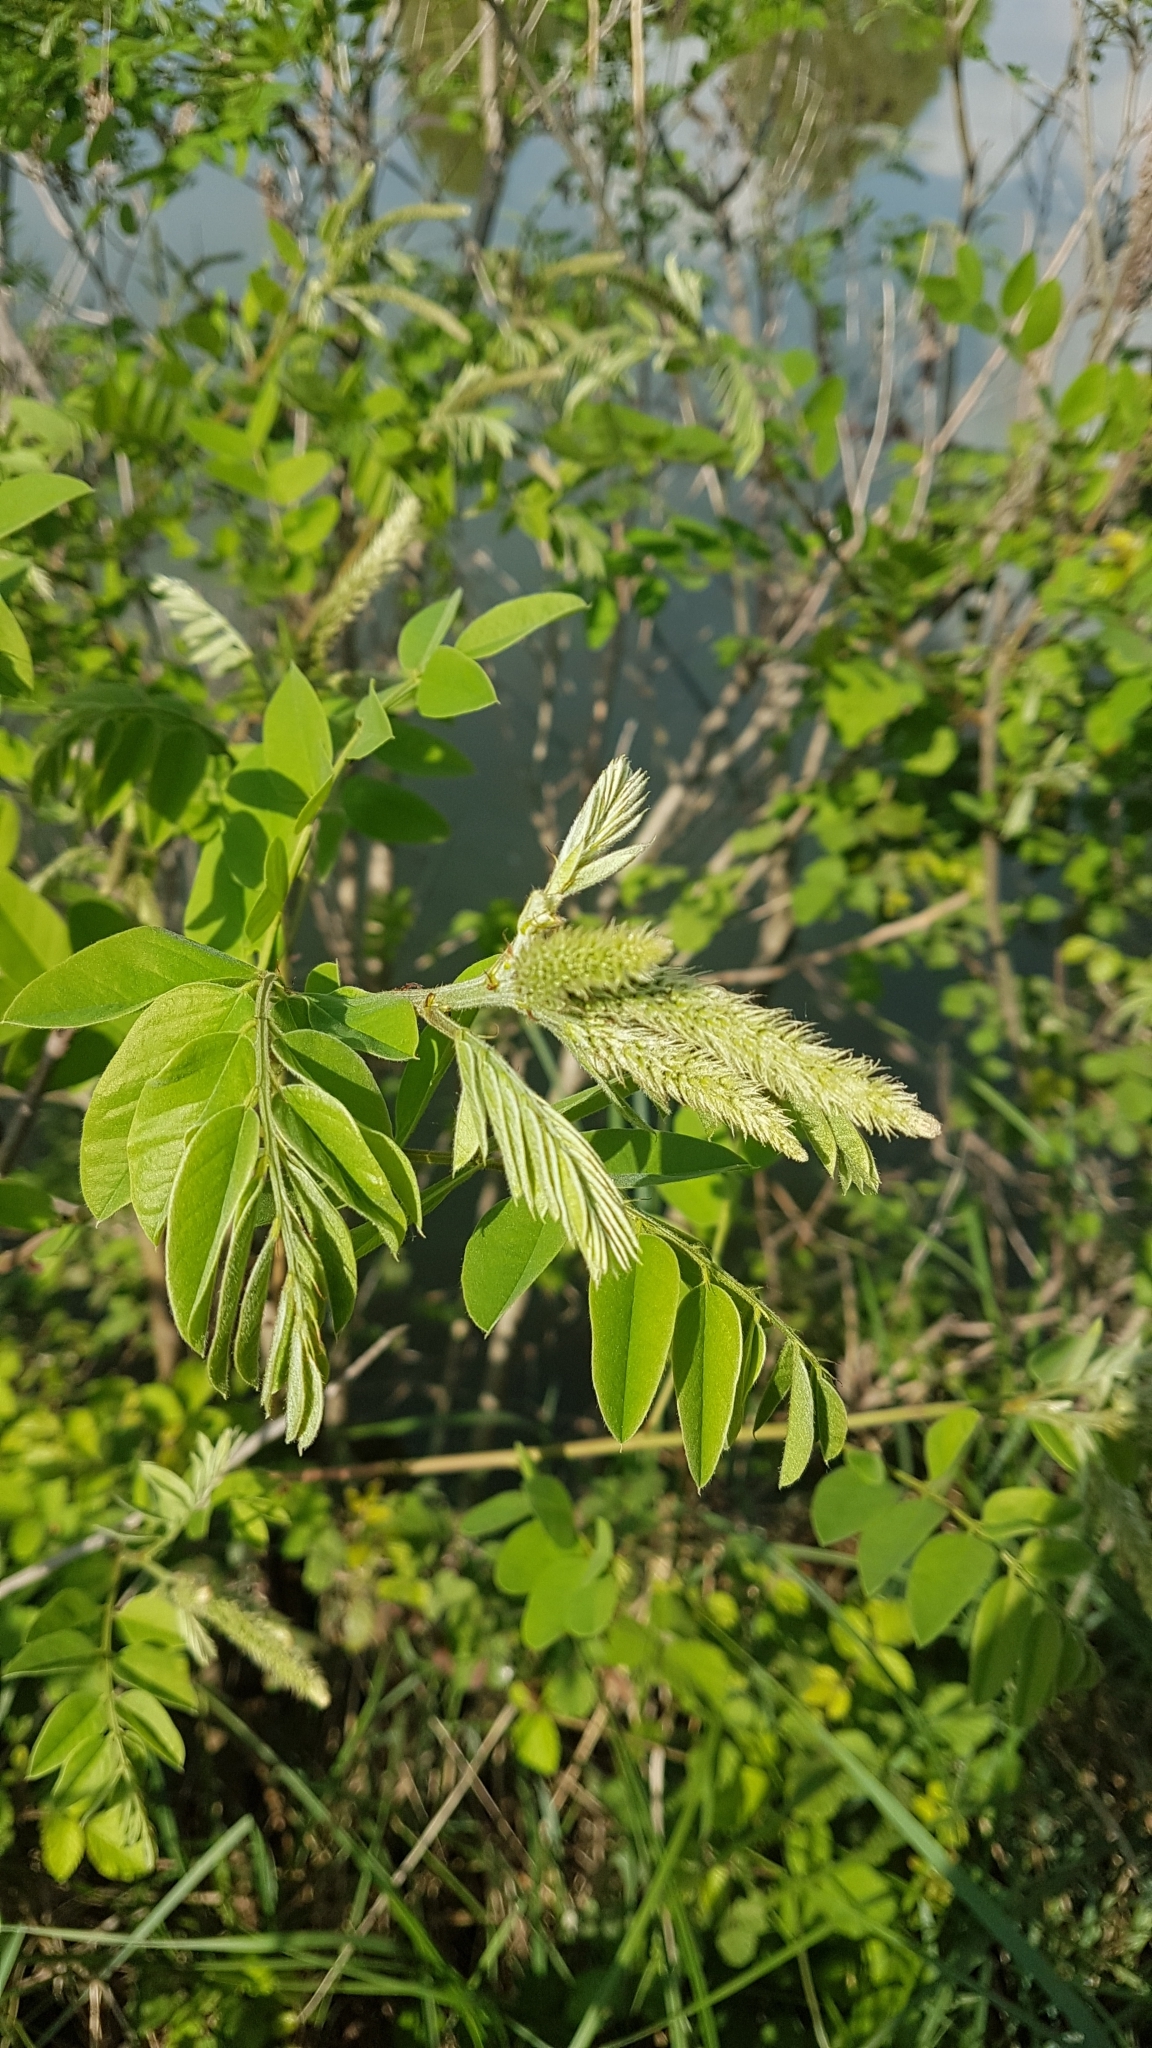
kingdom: Plantae
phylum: Tracheophyta
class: Magnoliopsida
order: Fabales
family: Fabaceae
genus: Amorpha
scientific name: Amorpha fruticosa
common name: False indigo
